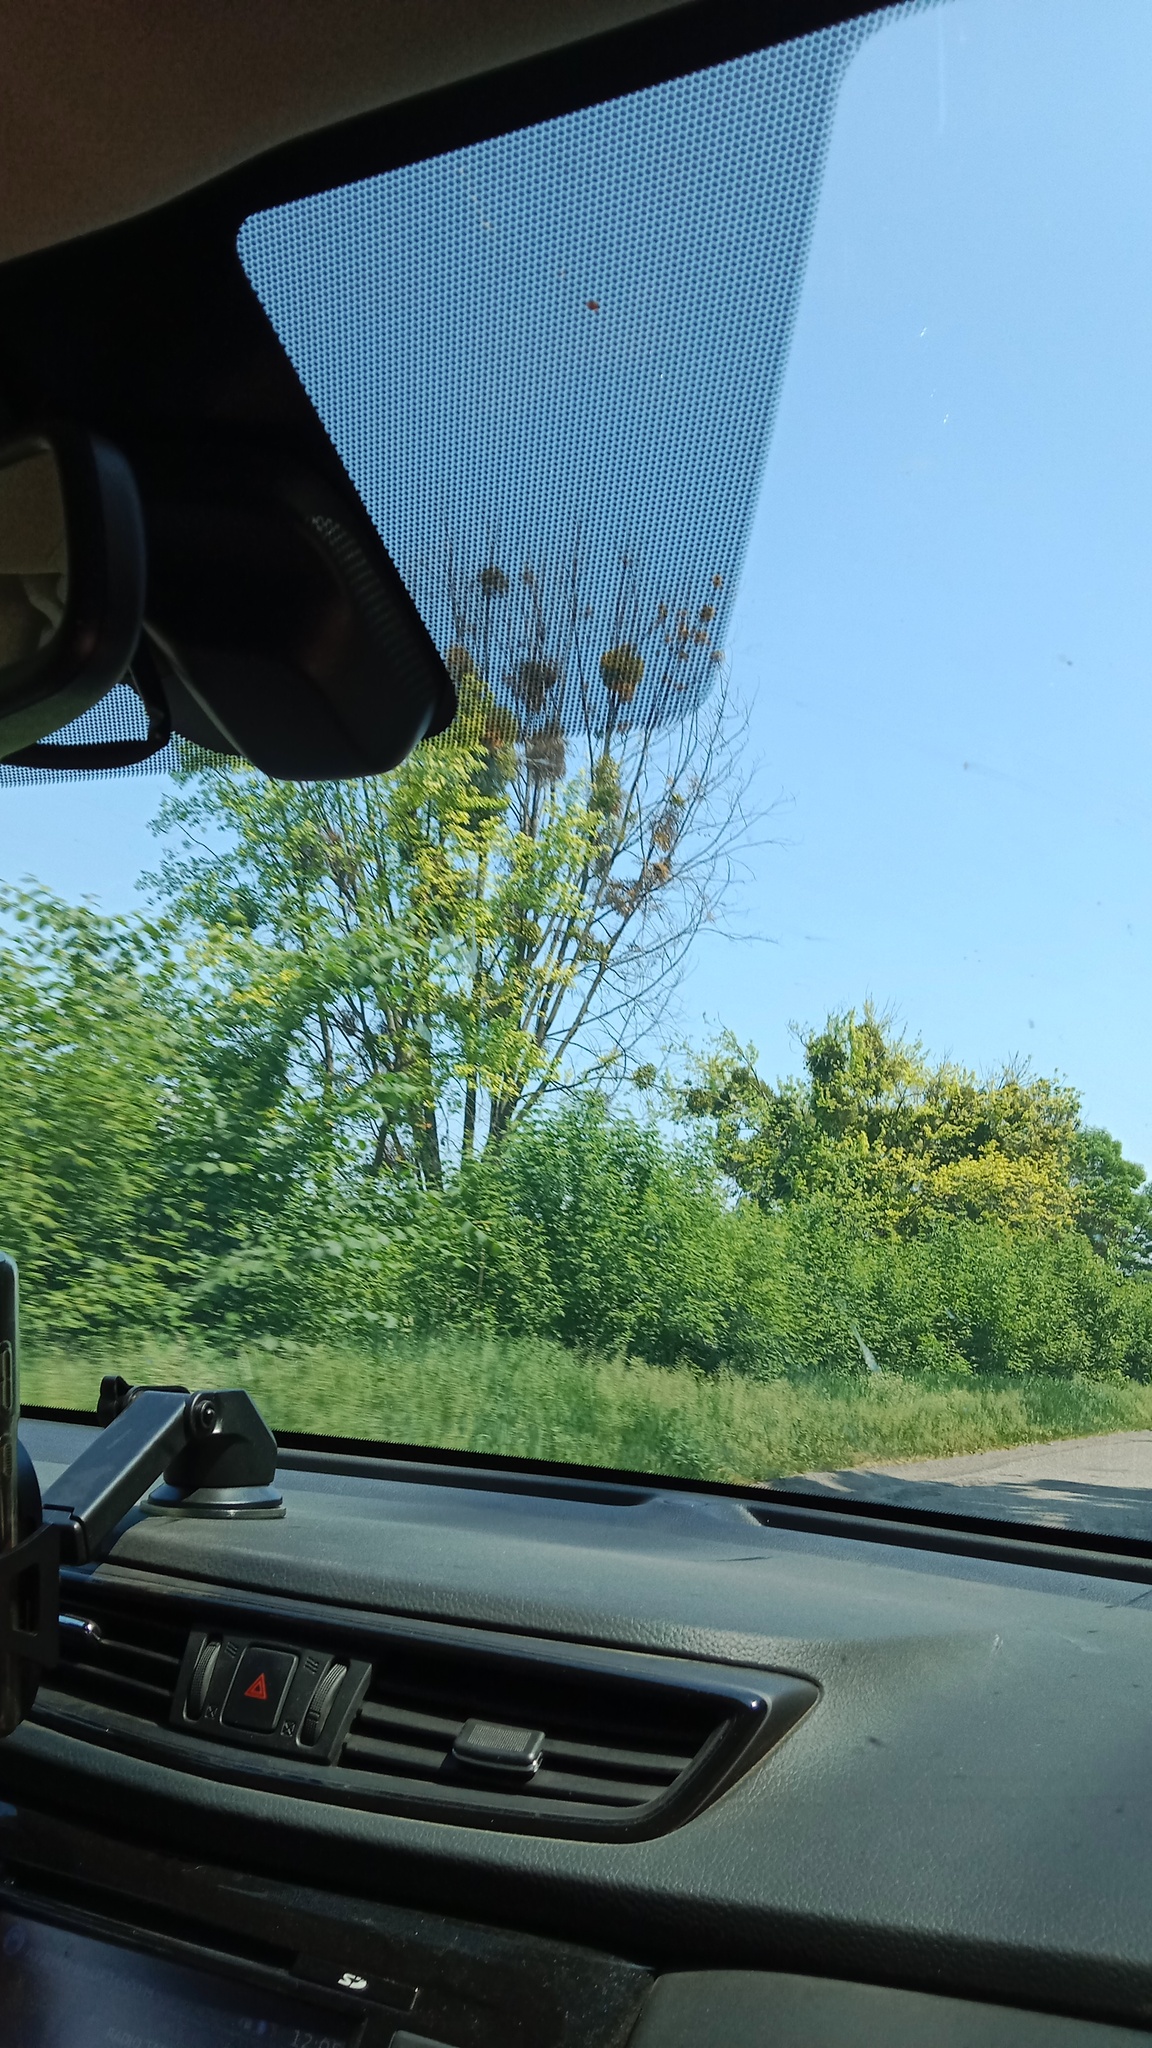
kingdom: Plantae
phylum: Tracheophyta
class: Magnoliopsida
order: Santalales
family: Viscaceae
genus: Viscum
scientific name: Viscum album
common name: Mistletoe
